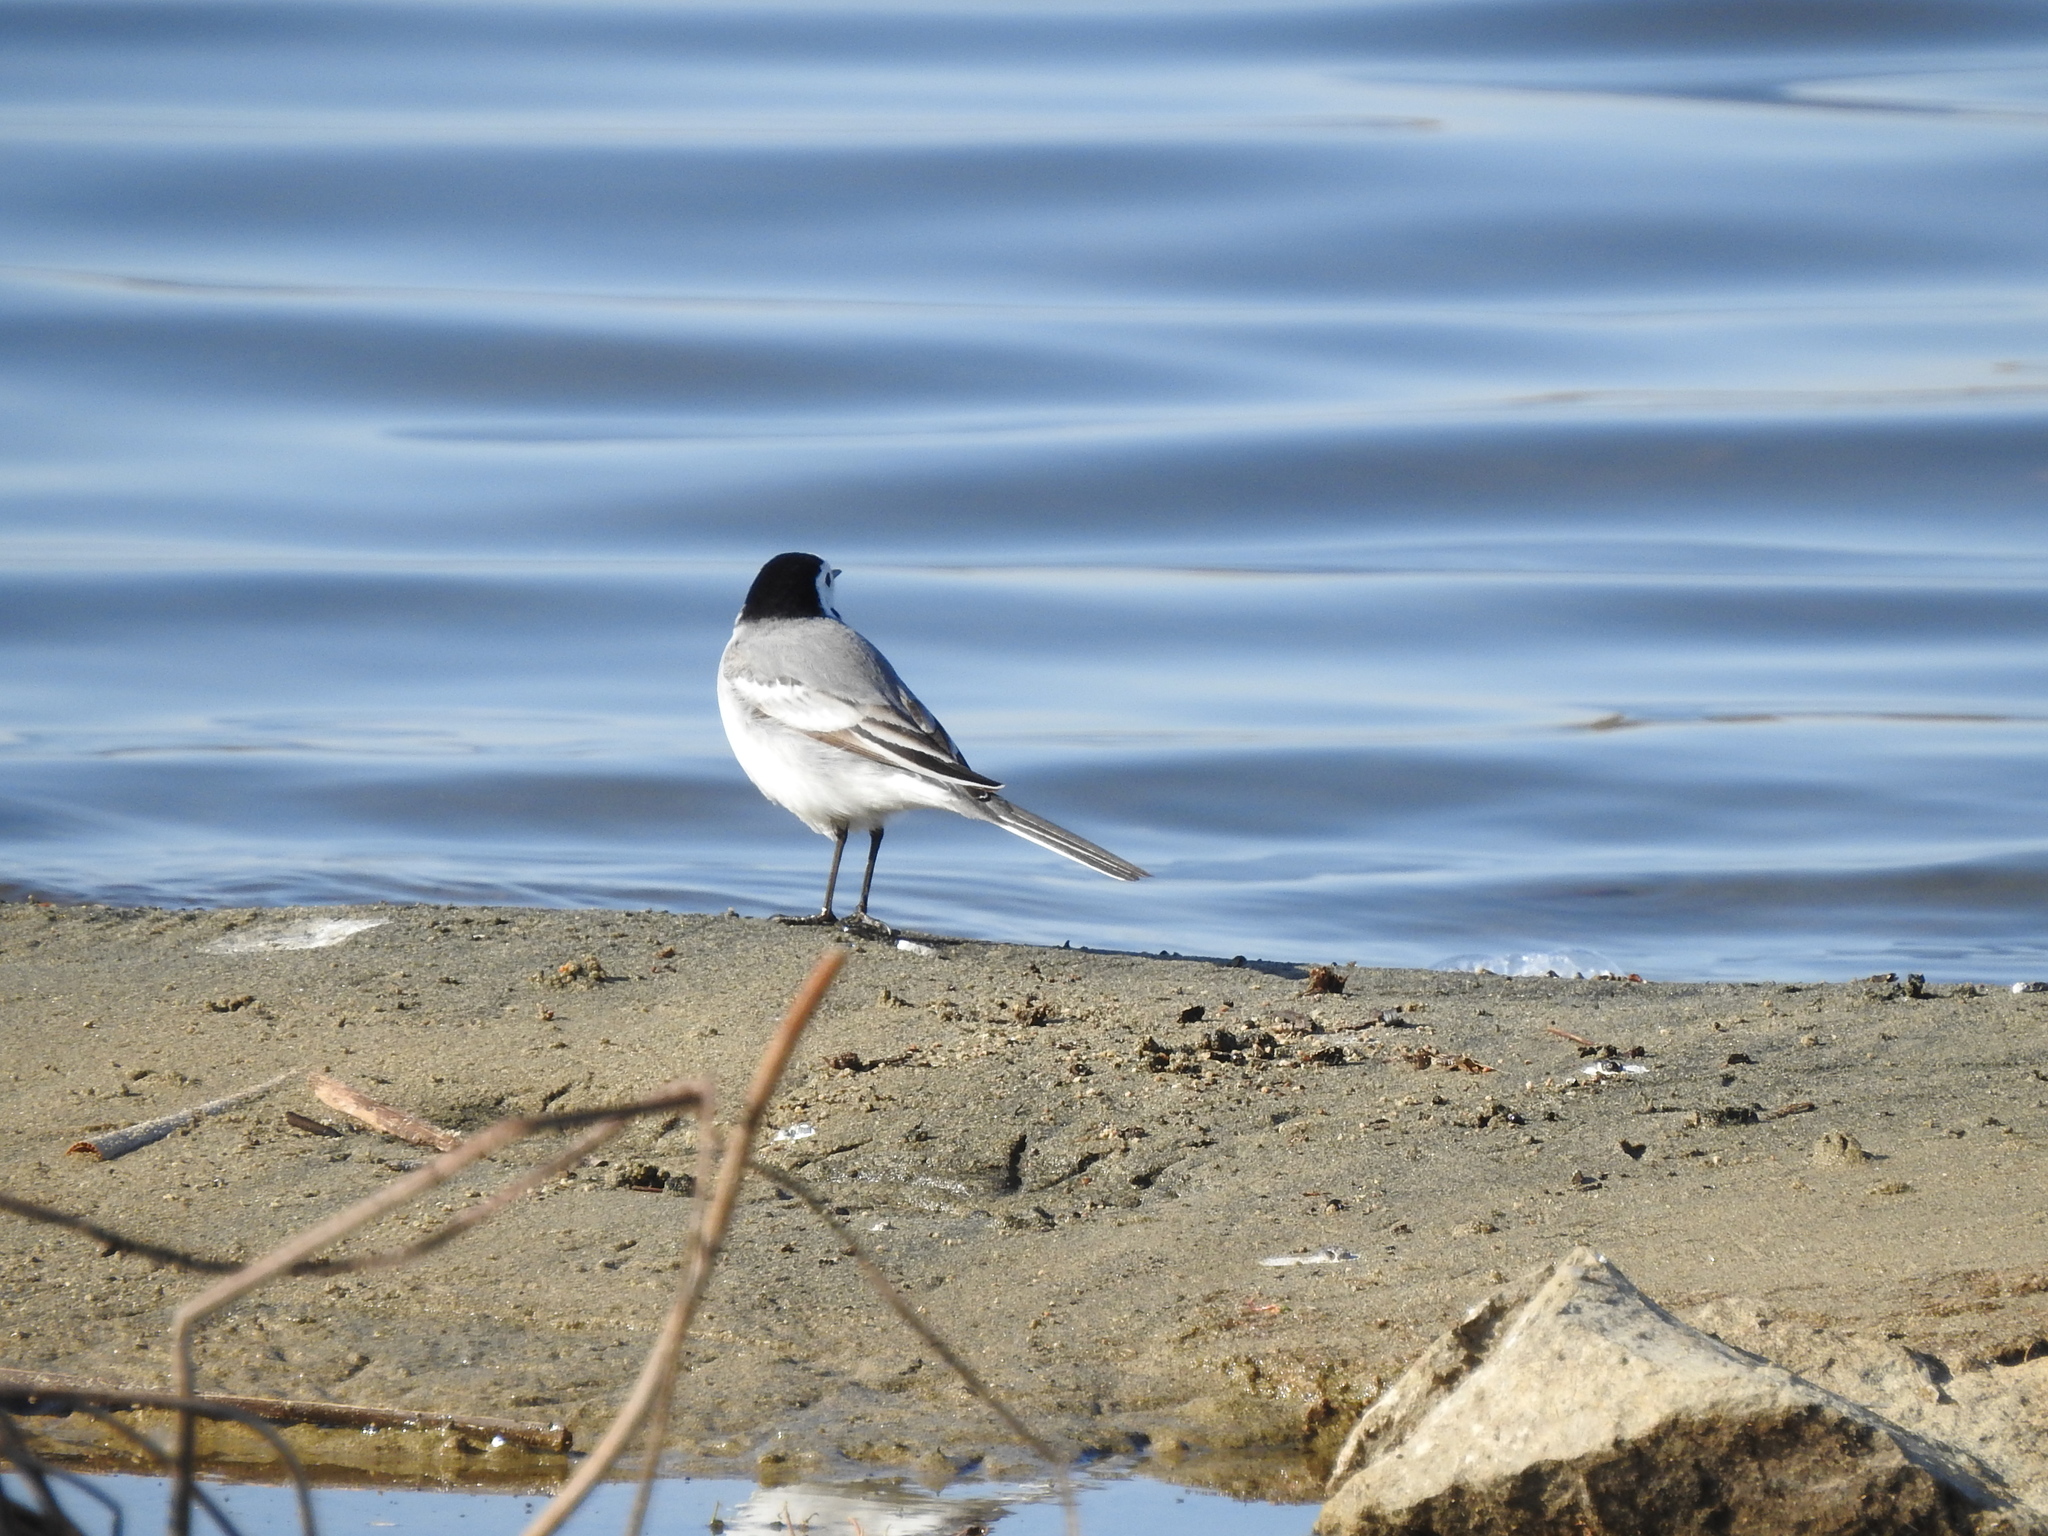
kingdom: Animalia
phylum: Chordata
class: Aves
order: Passeriformes
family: Motacillidae
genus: Motacilla
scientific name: Motacilla alba
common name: White wagtail
